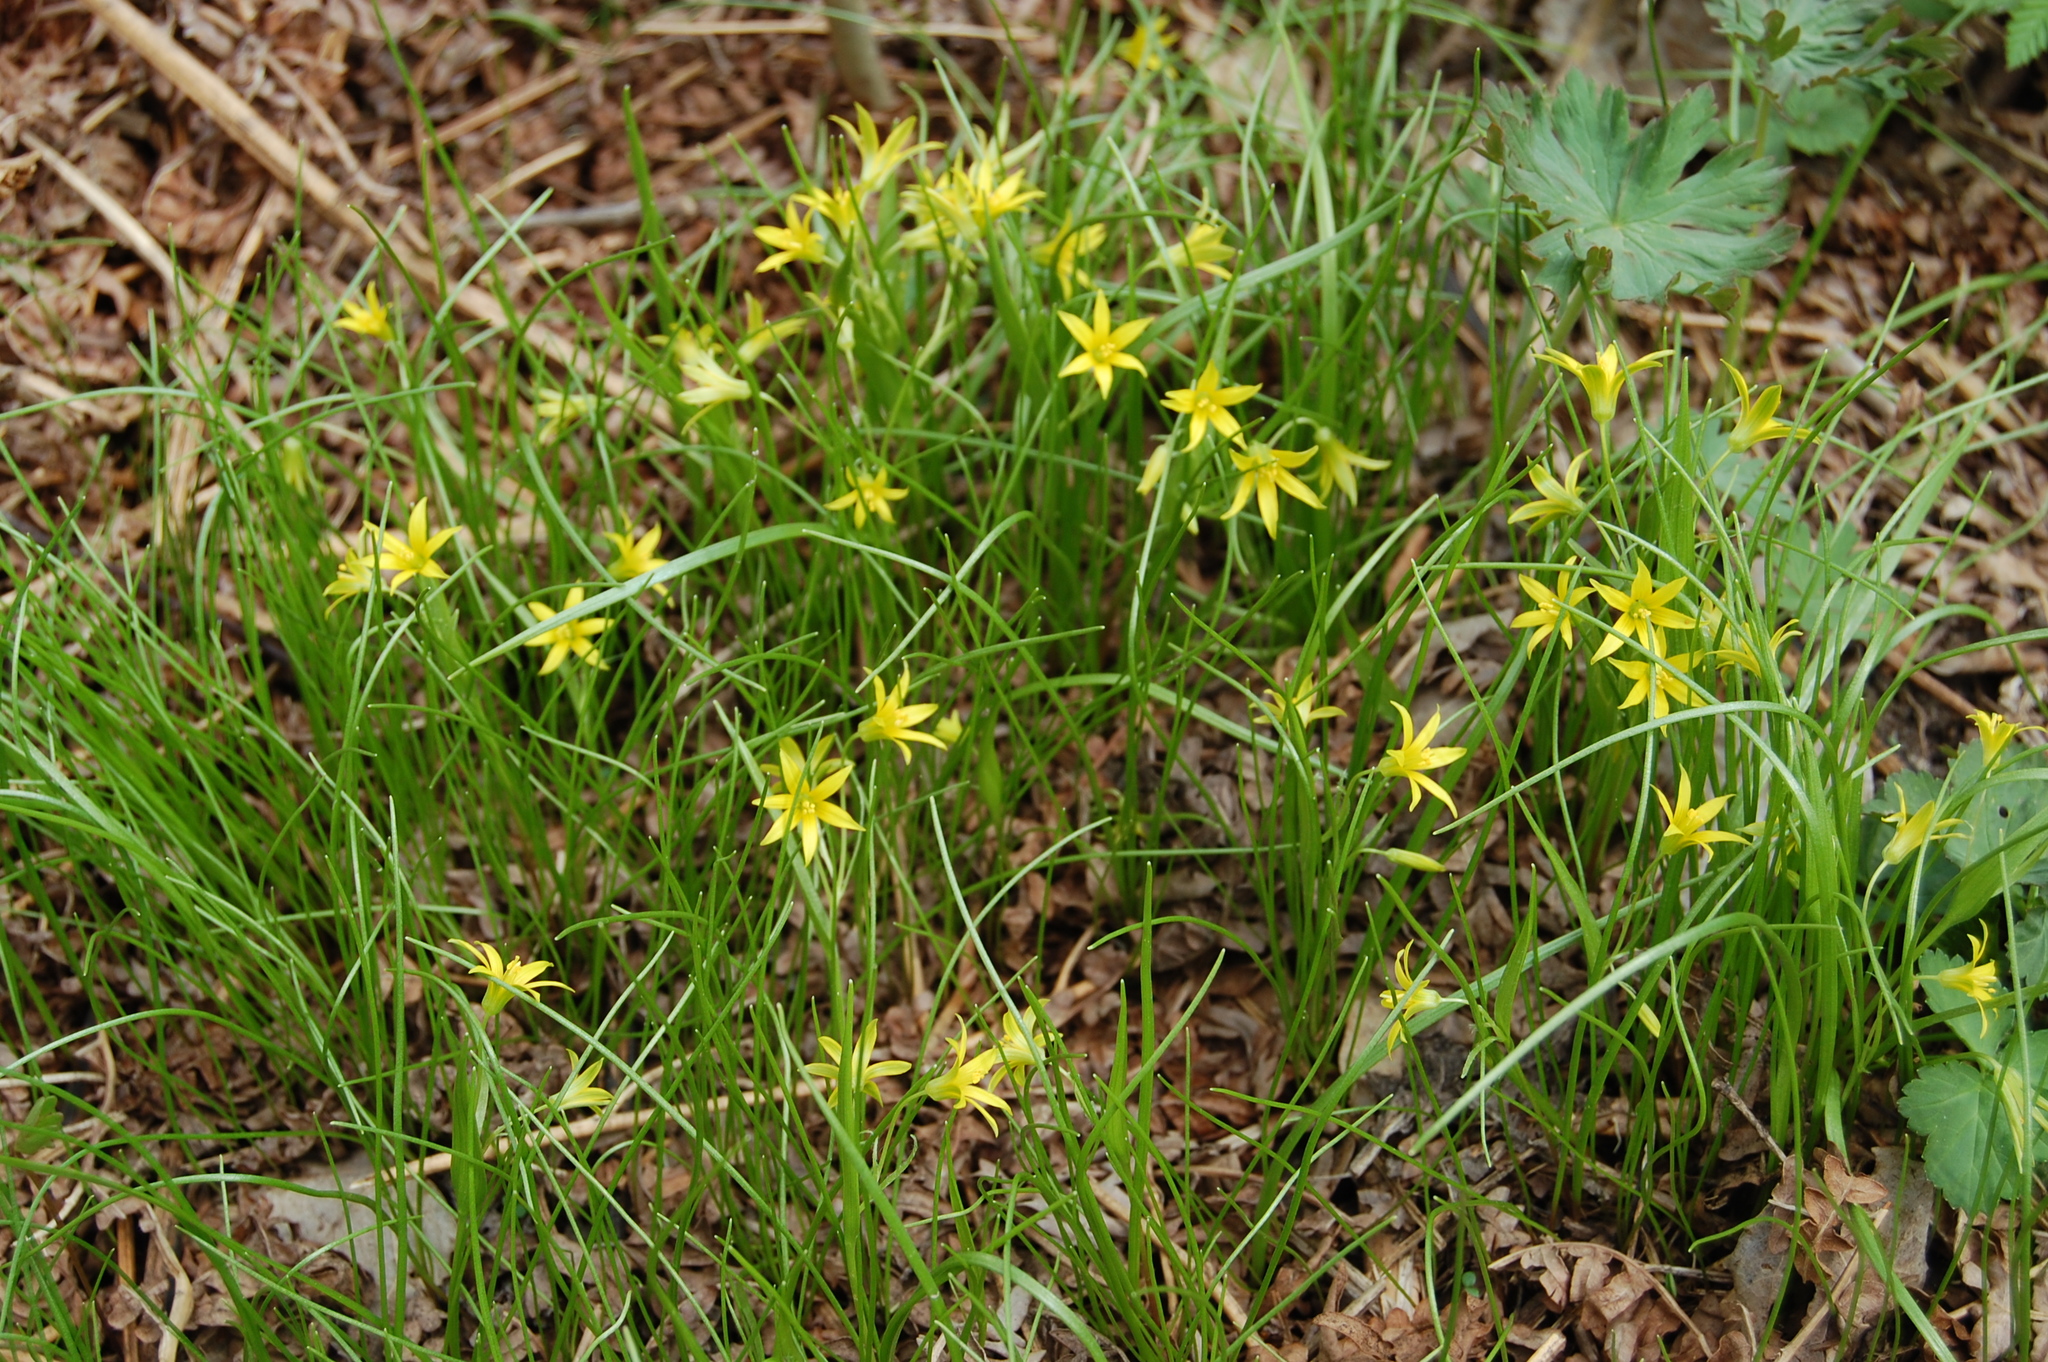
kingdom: Plantae
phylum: Tracheophyta
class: Liliopsida
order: Liliales
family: Liliaceae
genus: Gagea
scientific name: Gagea minima
